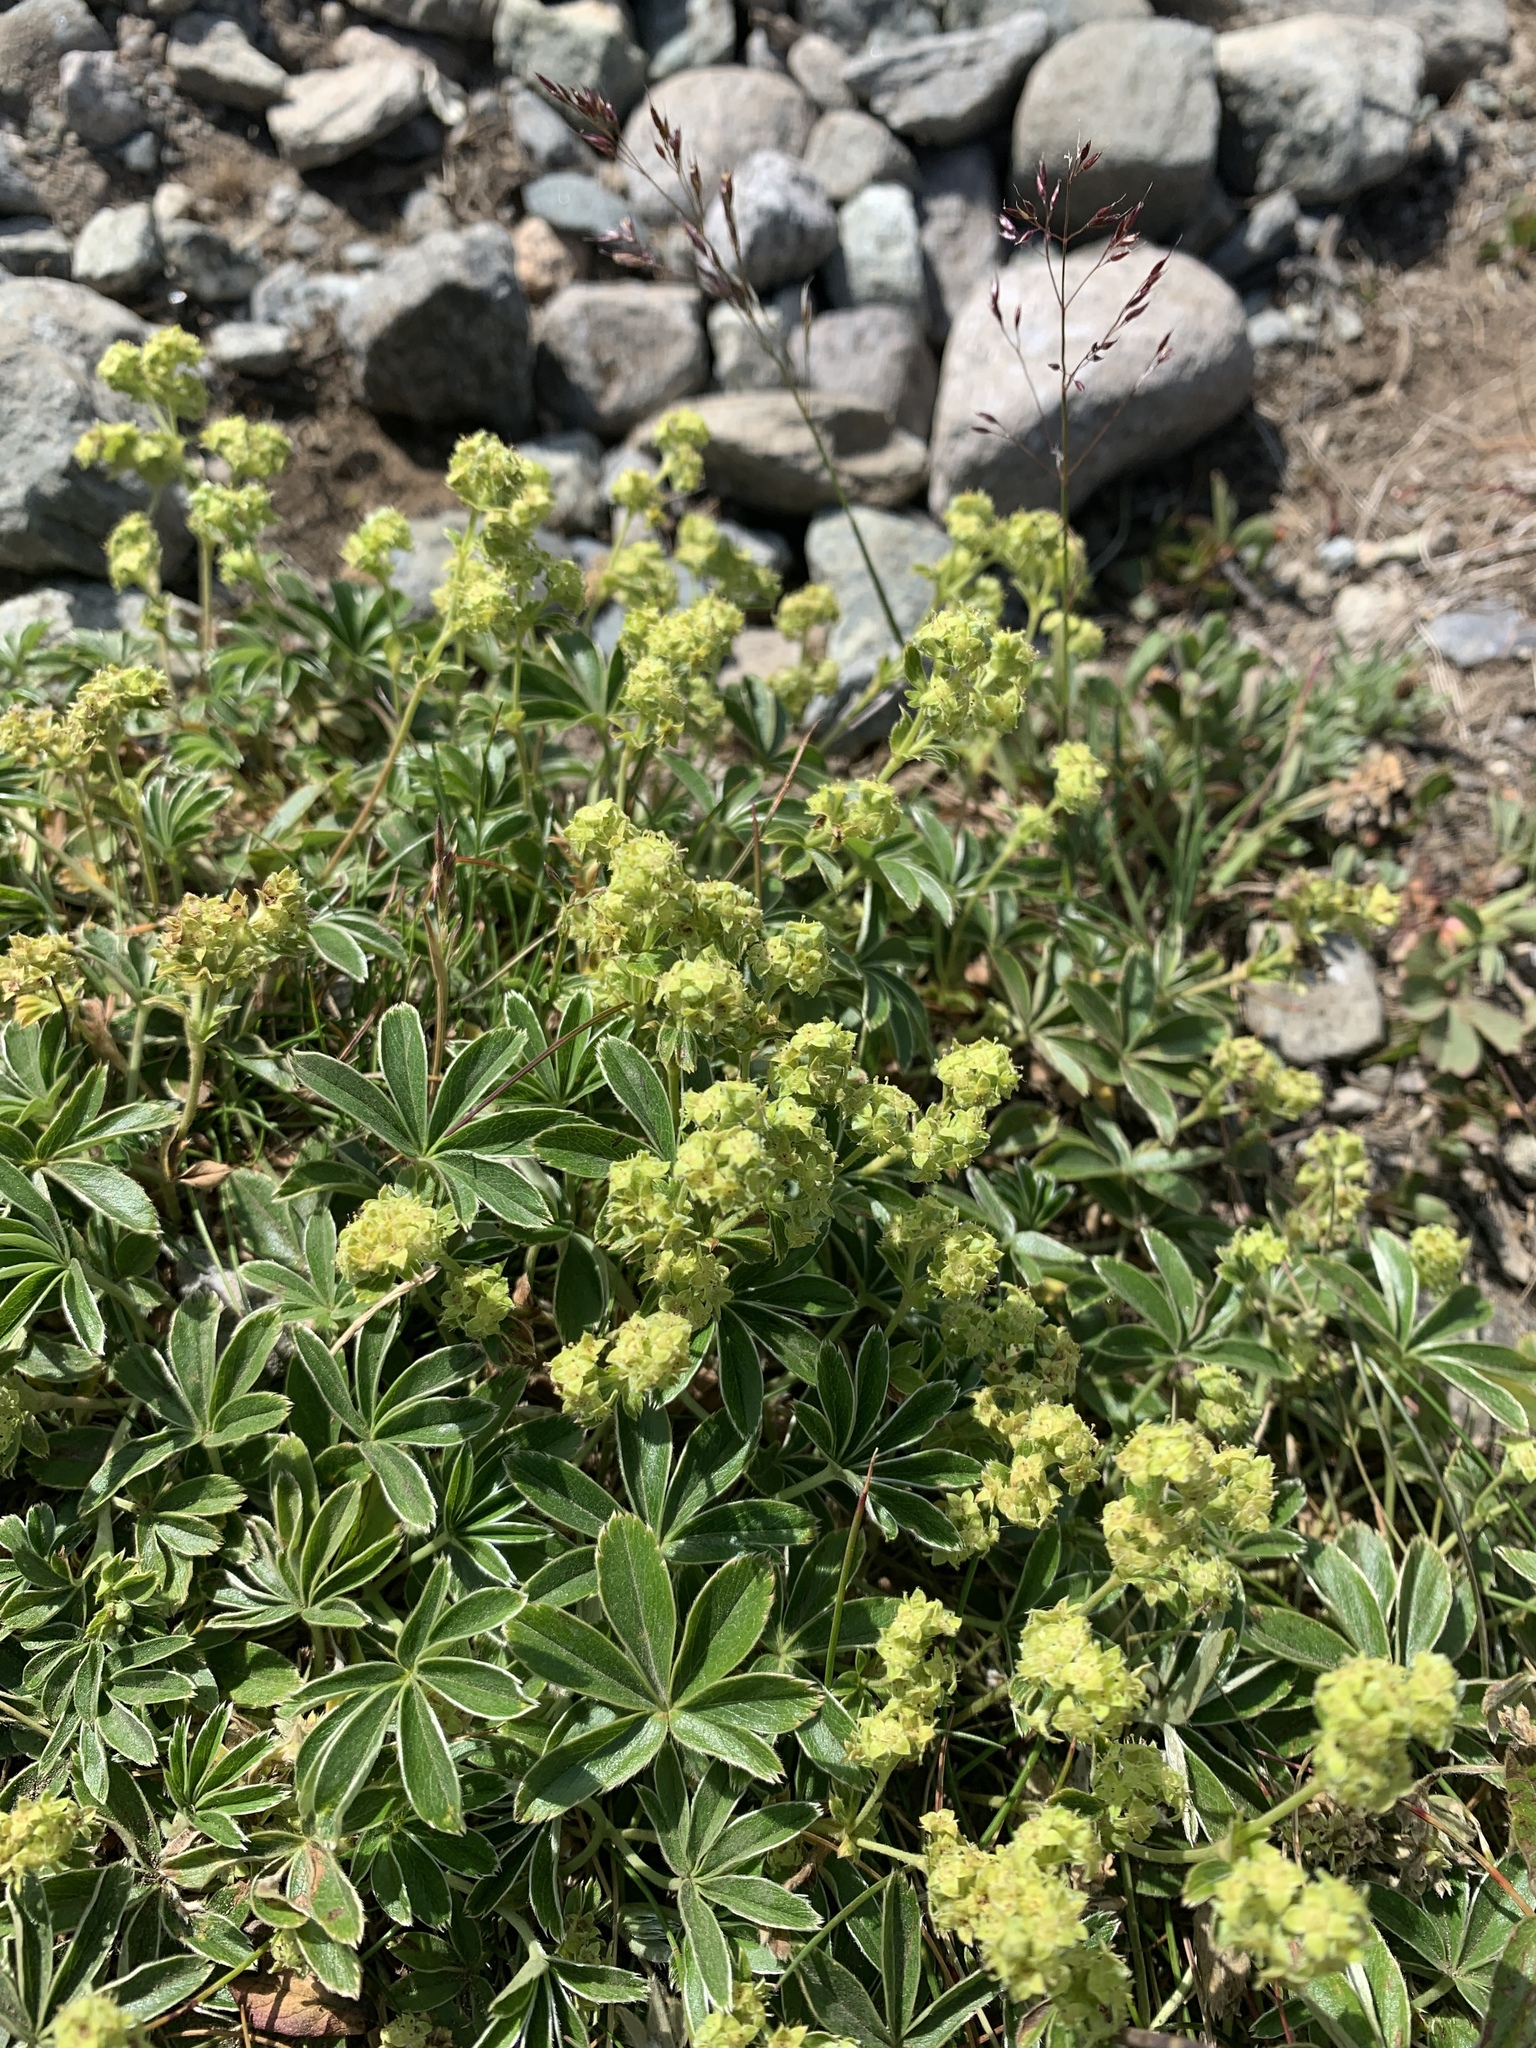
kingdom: Plantae
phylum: Tracheophyta
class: Magnoliopsida
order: Rosales
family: Rosaceae
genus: Alchemilla
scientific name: Alchemilla alpina
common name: Alpine lady's-mantle
